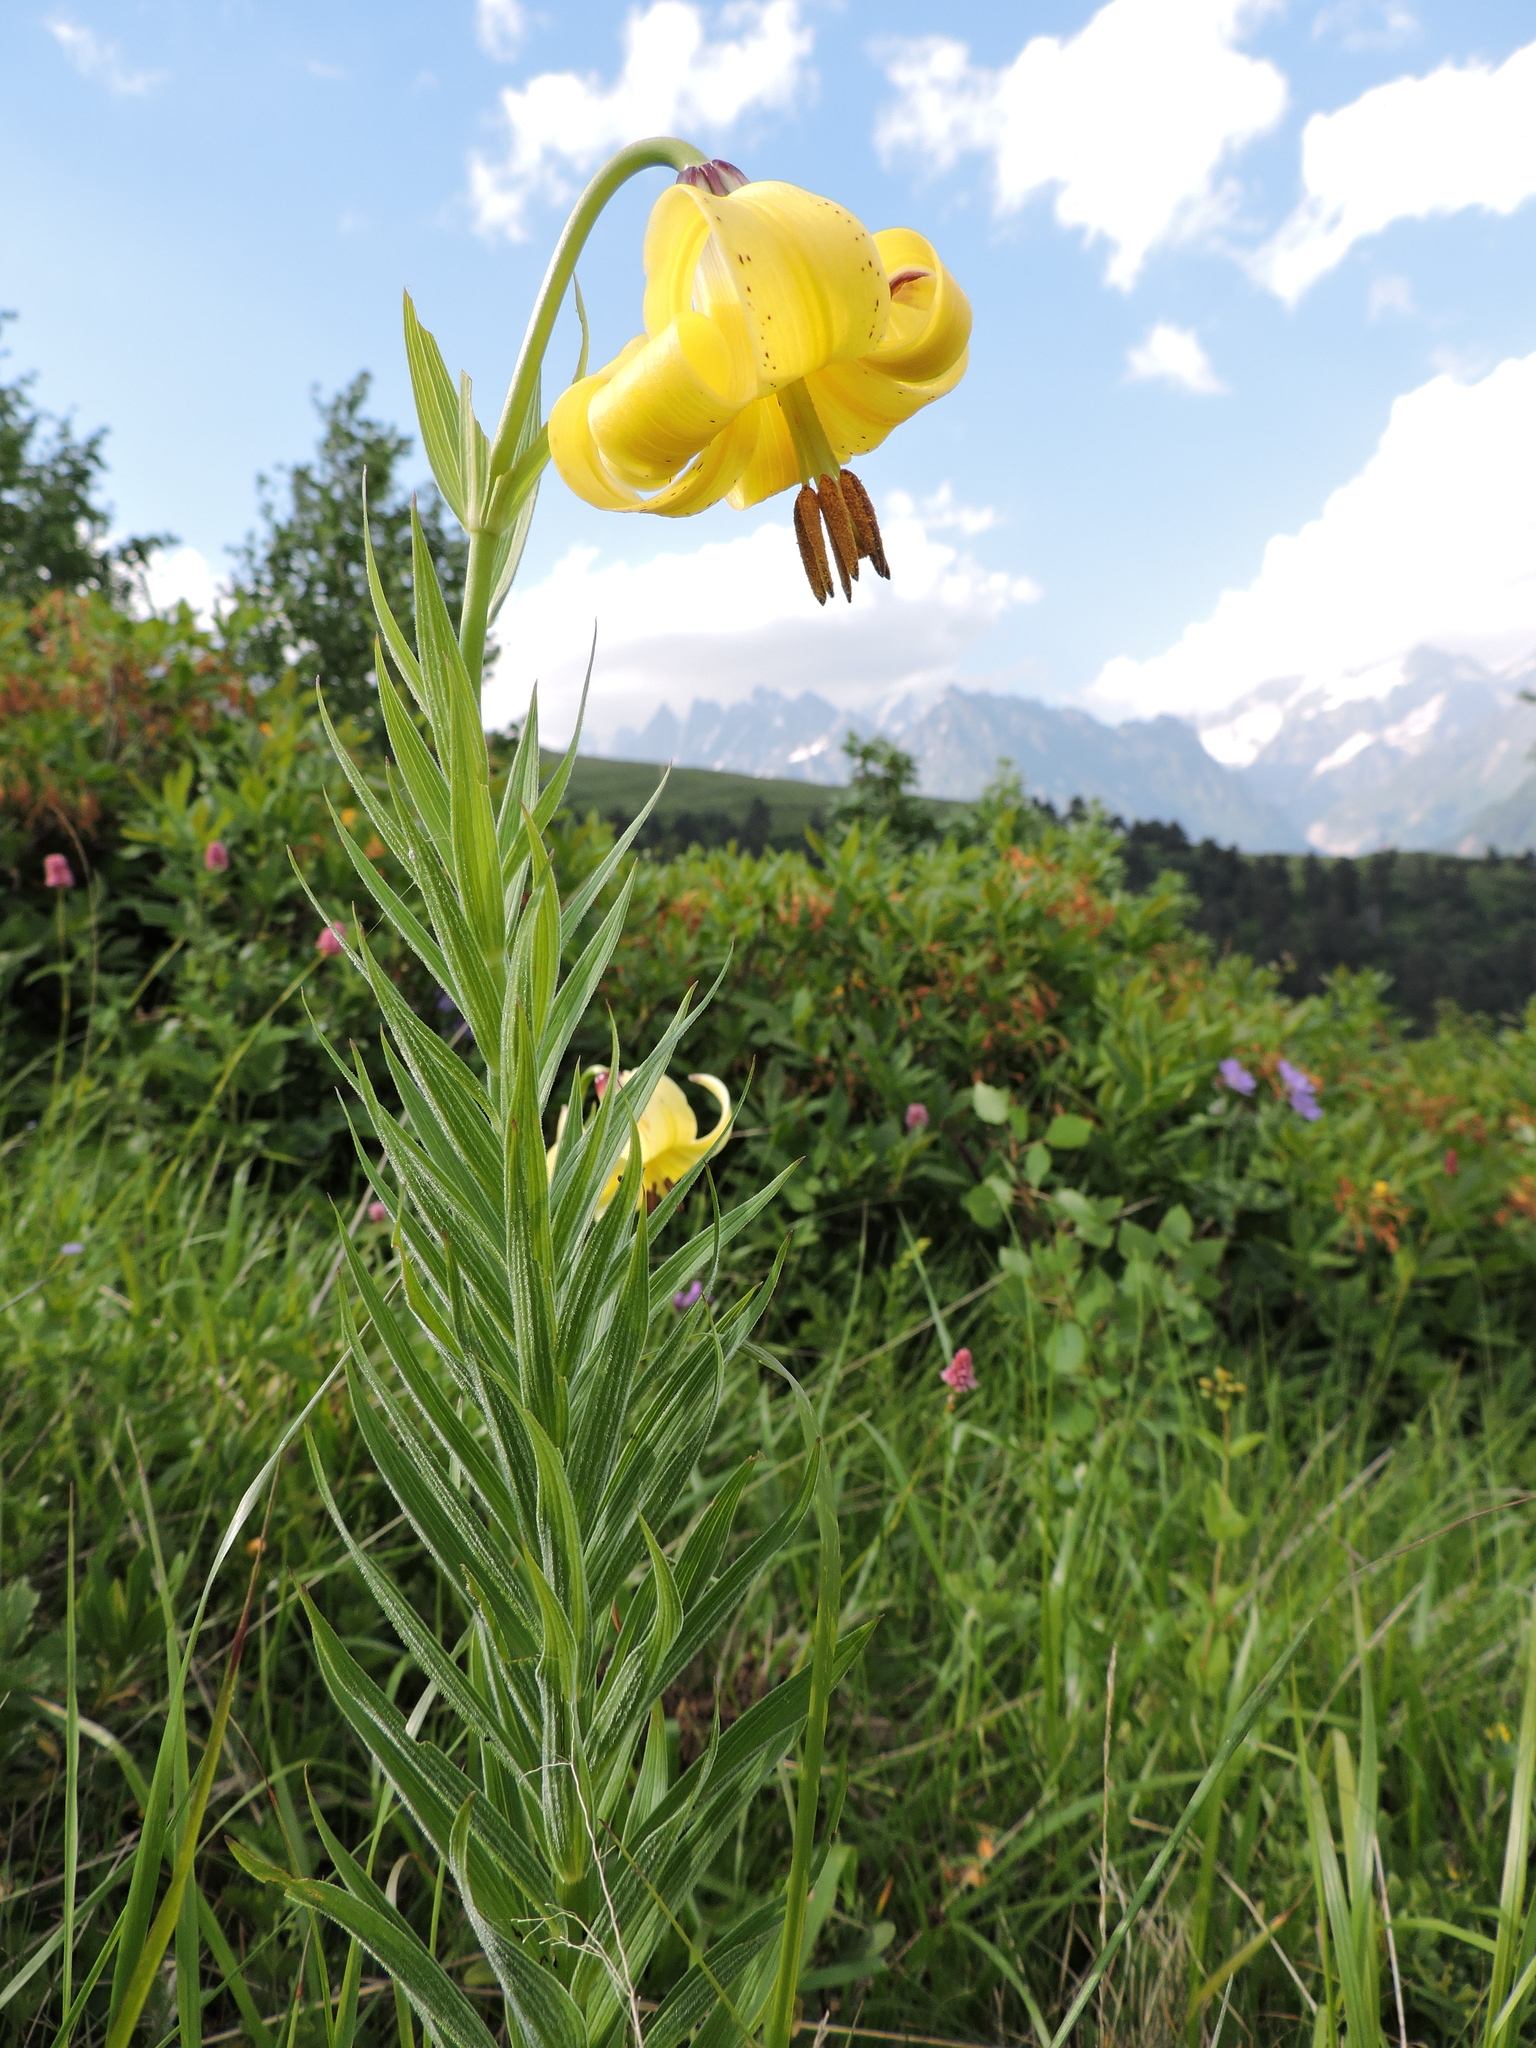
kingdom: Plantae
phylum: Tracheophyta
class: Liliopsida
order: Liliales
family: Liliaceae
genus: Lilium
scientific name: Lilium kesselringianum
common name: Kesselring lily
